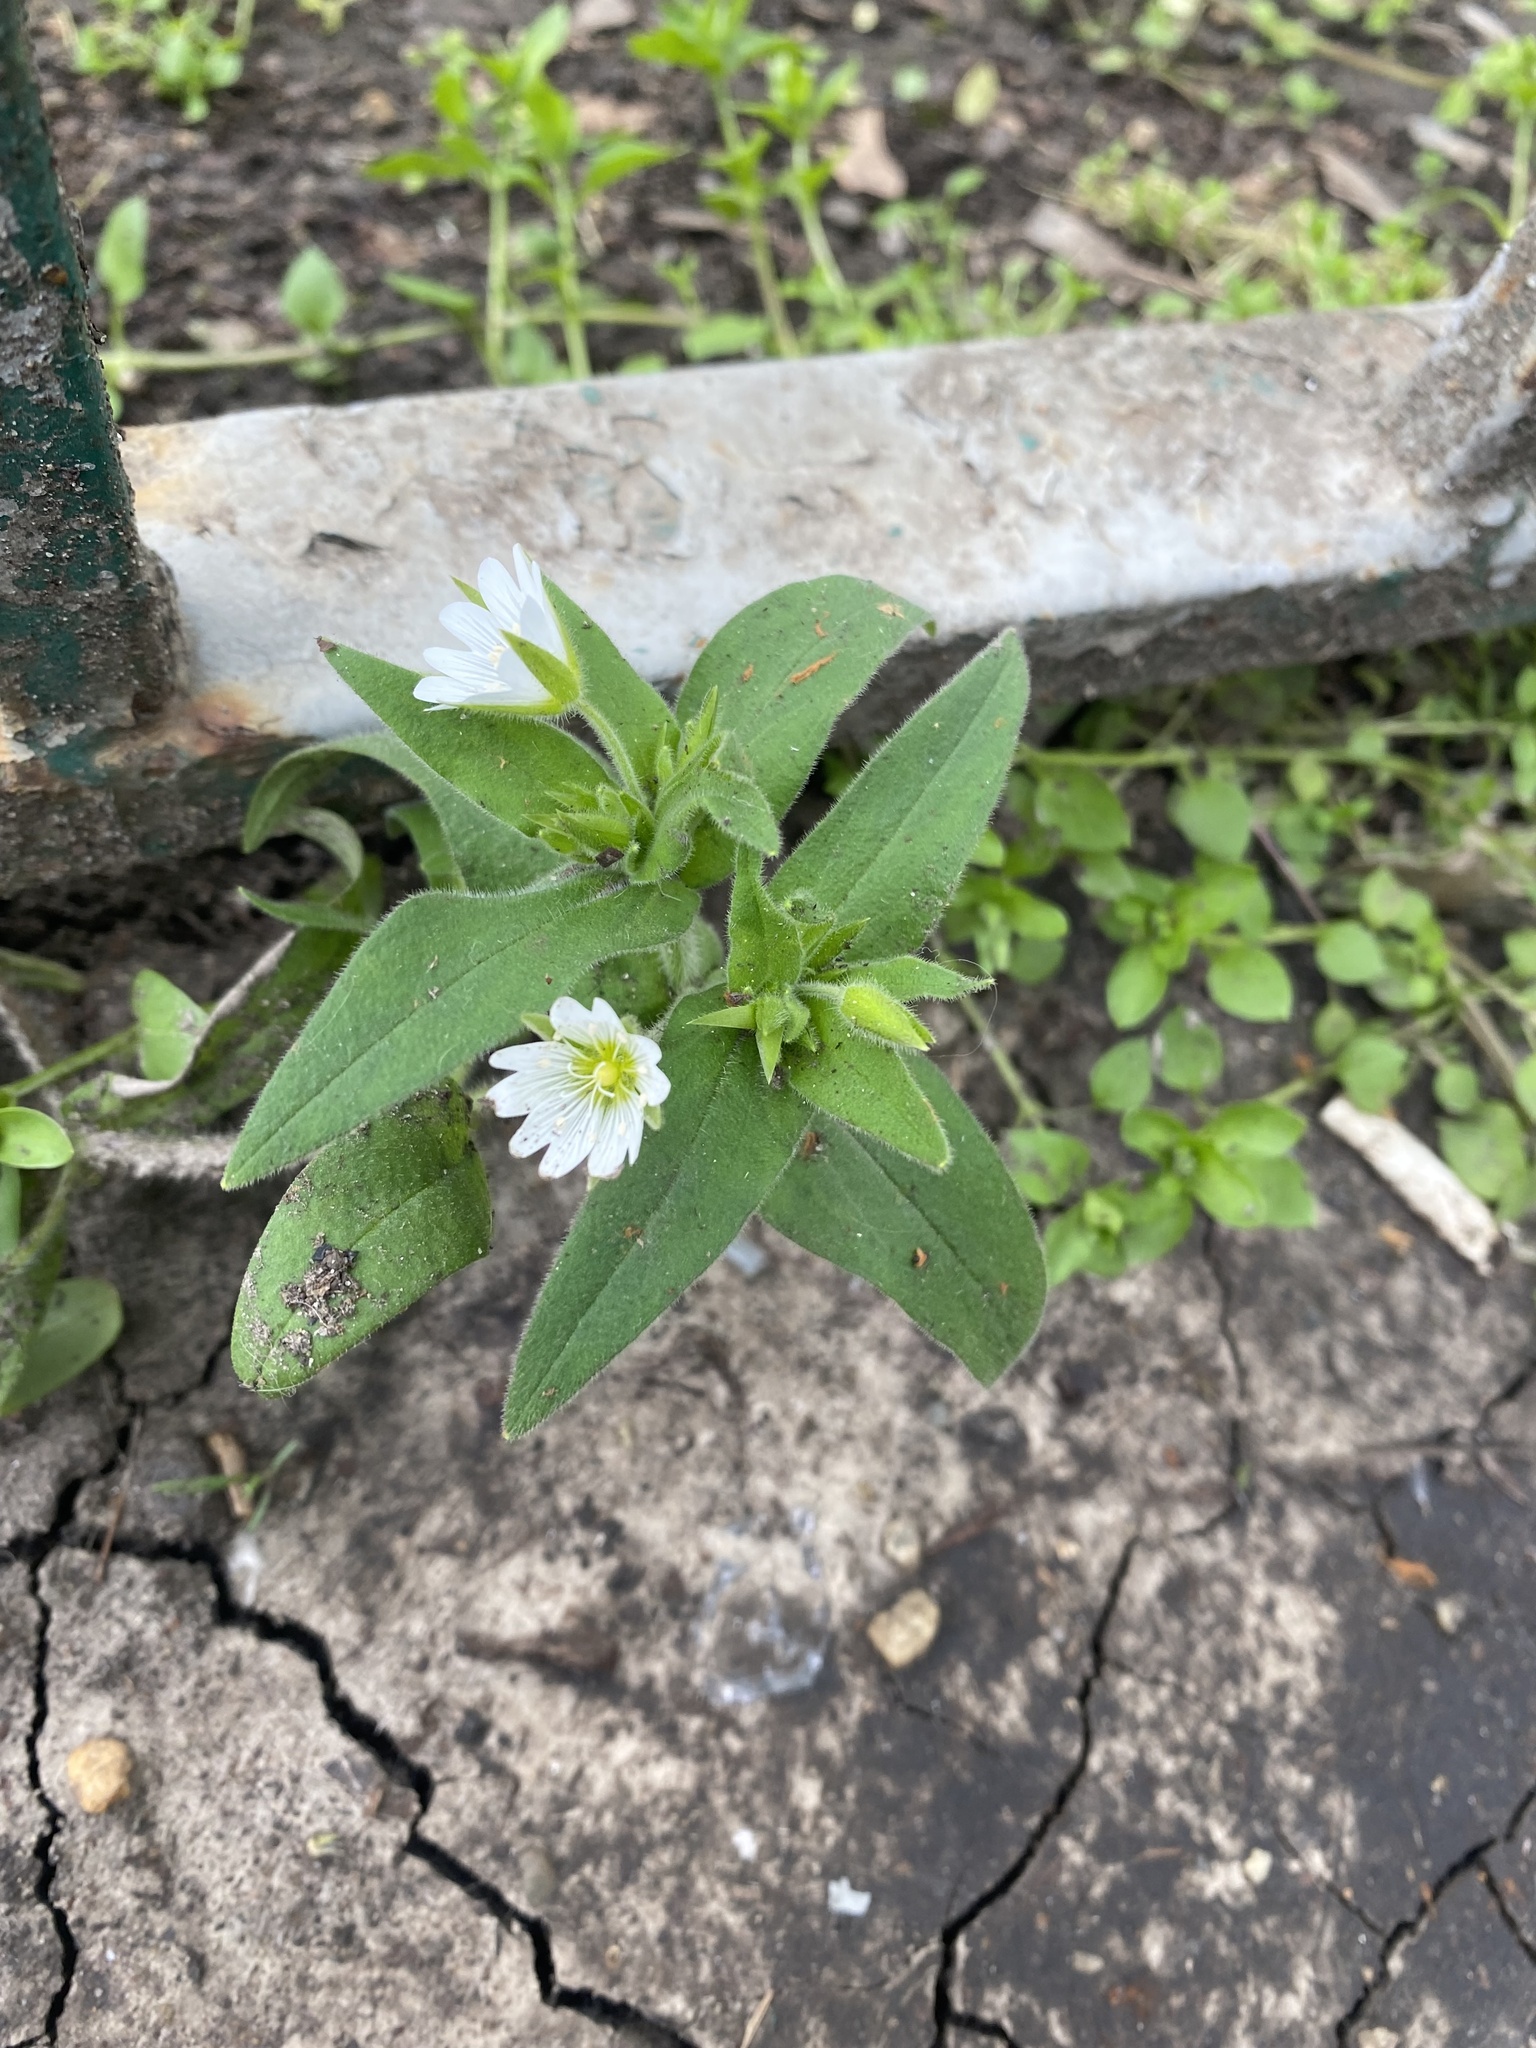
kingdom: Plantae
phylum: Tracheophyta
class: Magnoliopsida
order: Caryophyllales
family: Caryophyllaceae
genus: Cerastium
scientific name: Cerastium nemorale
